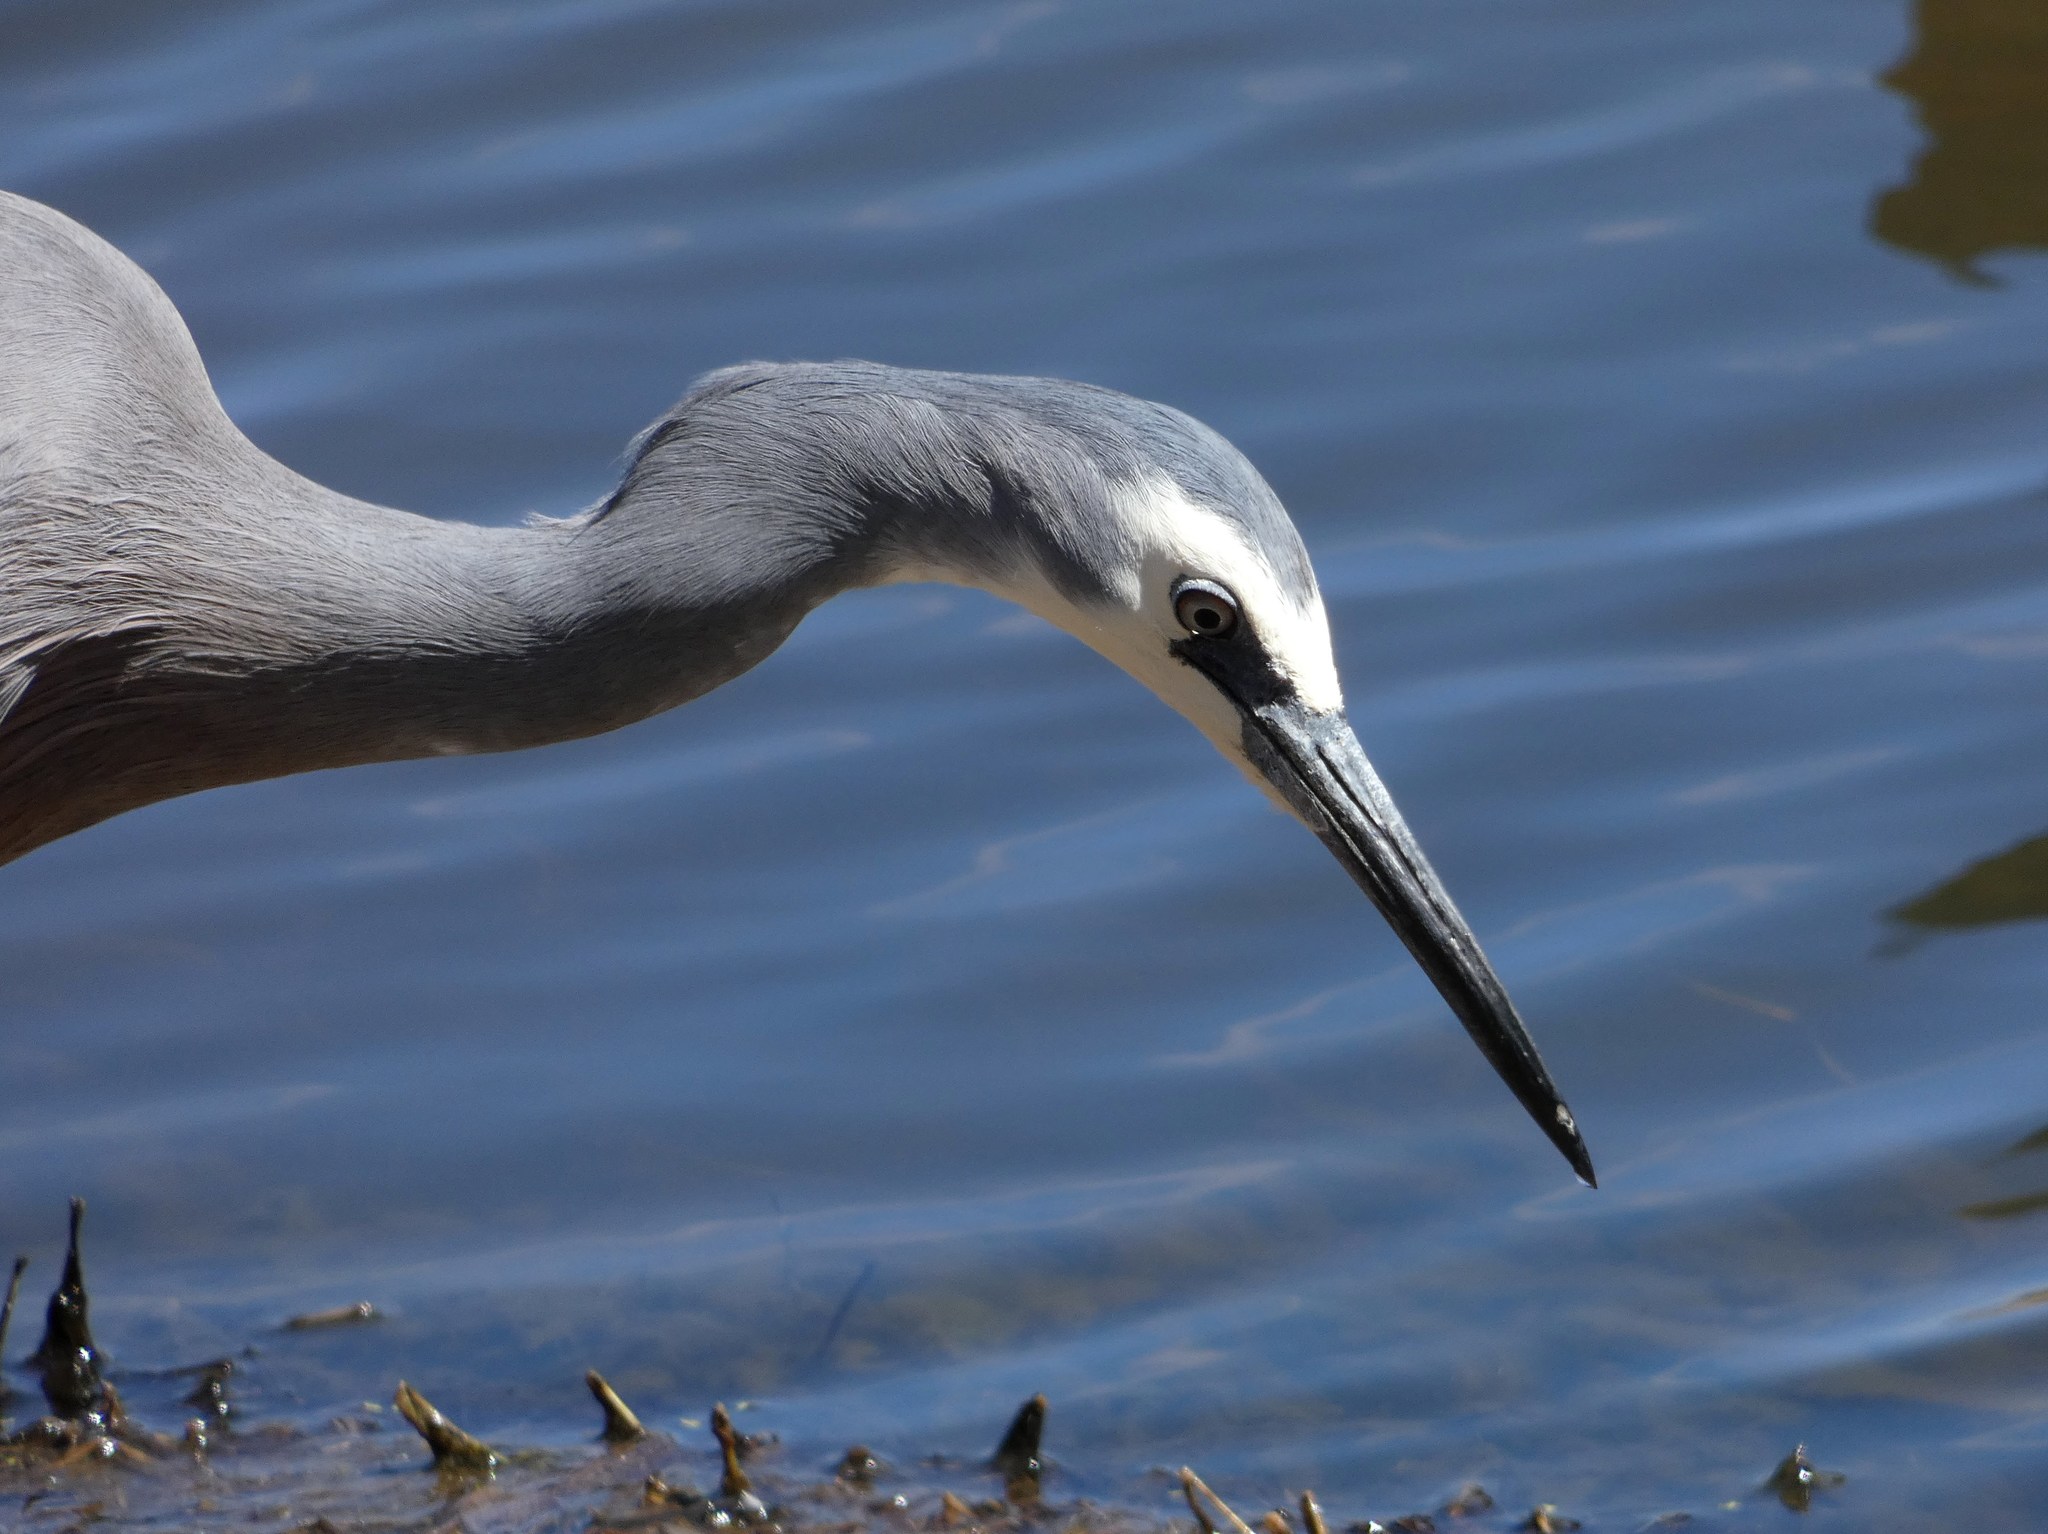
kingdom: Animalia
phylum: Chordata
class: Aves
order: Pelecaniformes
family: Ardeidae
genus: Egretta
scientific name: Egretta novaehollandiae
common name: White-faced heron
